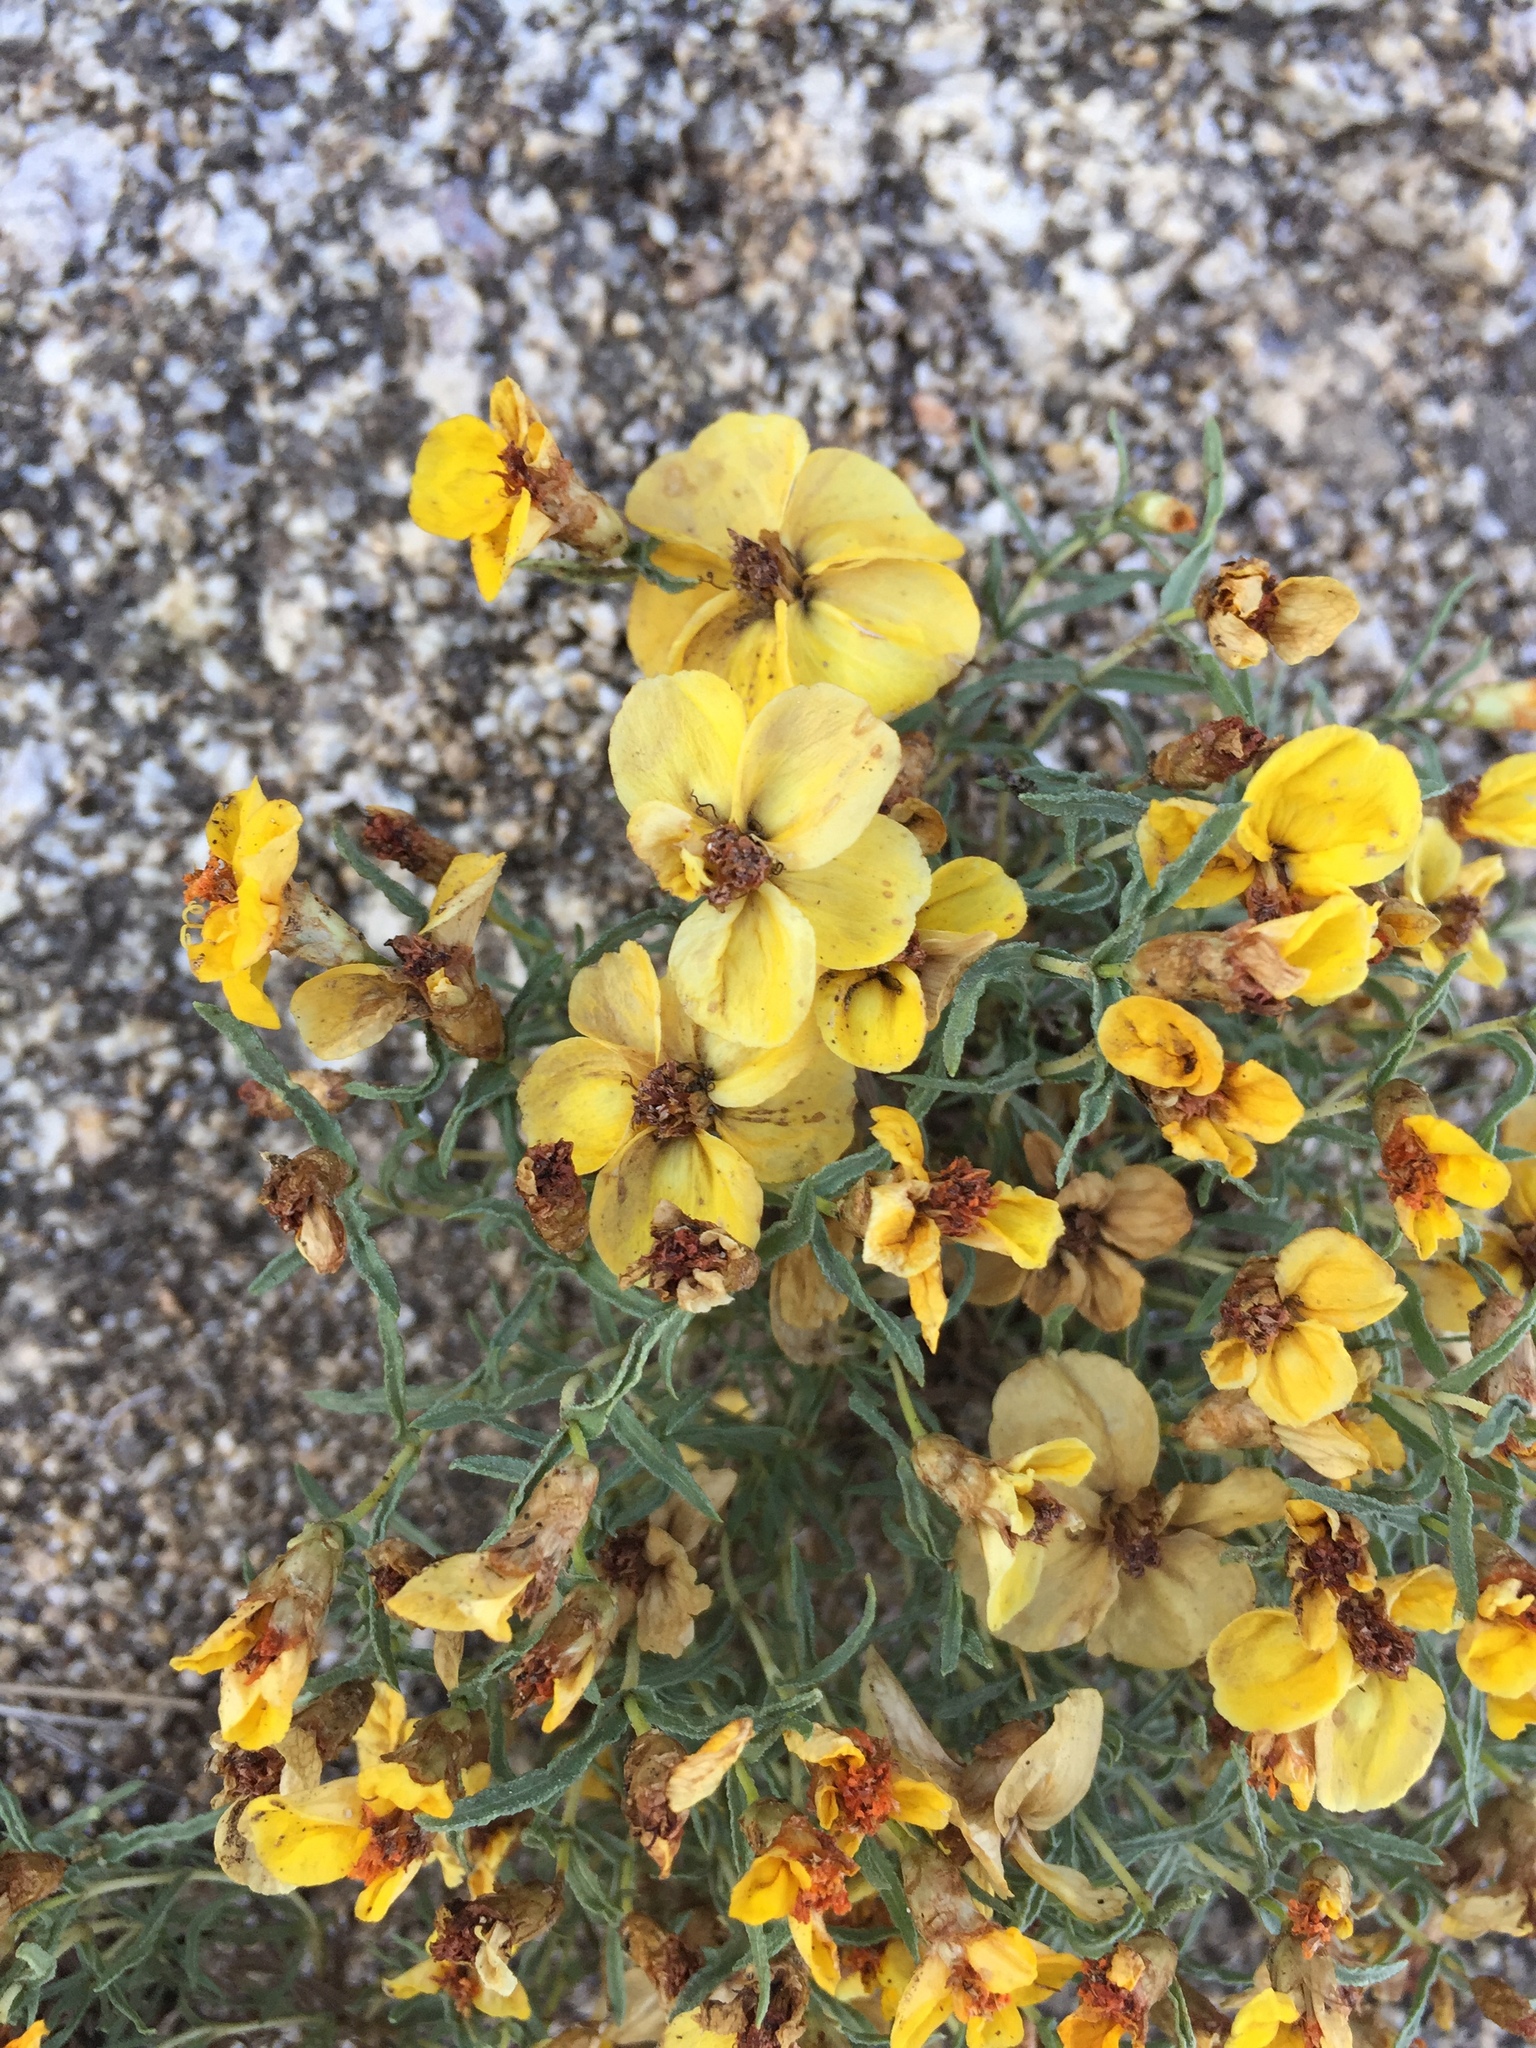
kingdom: Plantae
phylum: Tracheophyta
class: Magnoliopsida
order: Asterales
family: Asteraceae
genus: Zinnia
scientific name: Zinnia grandiflora
